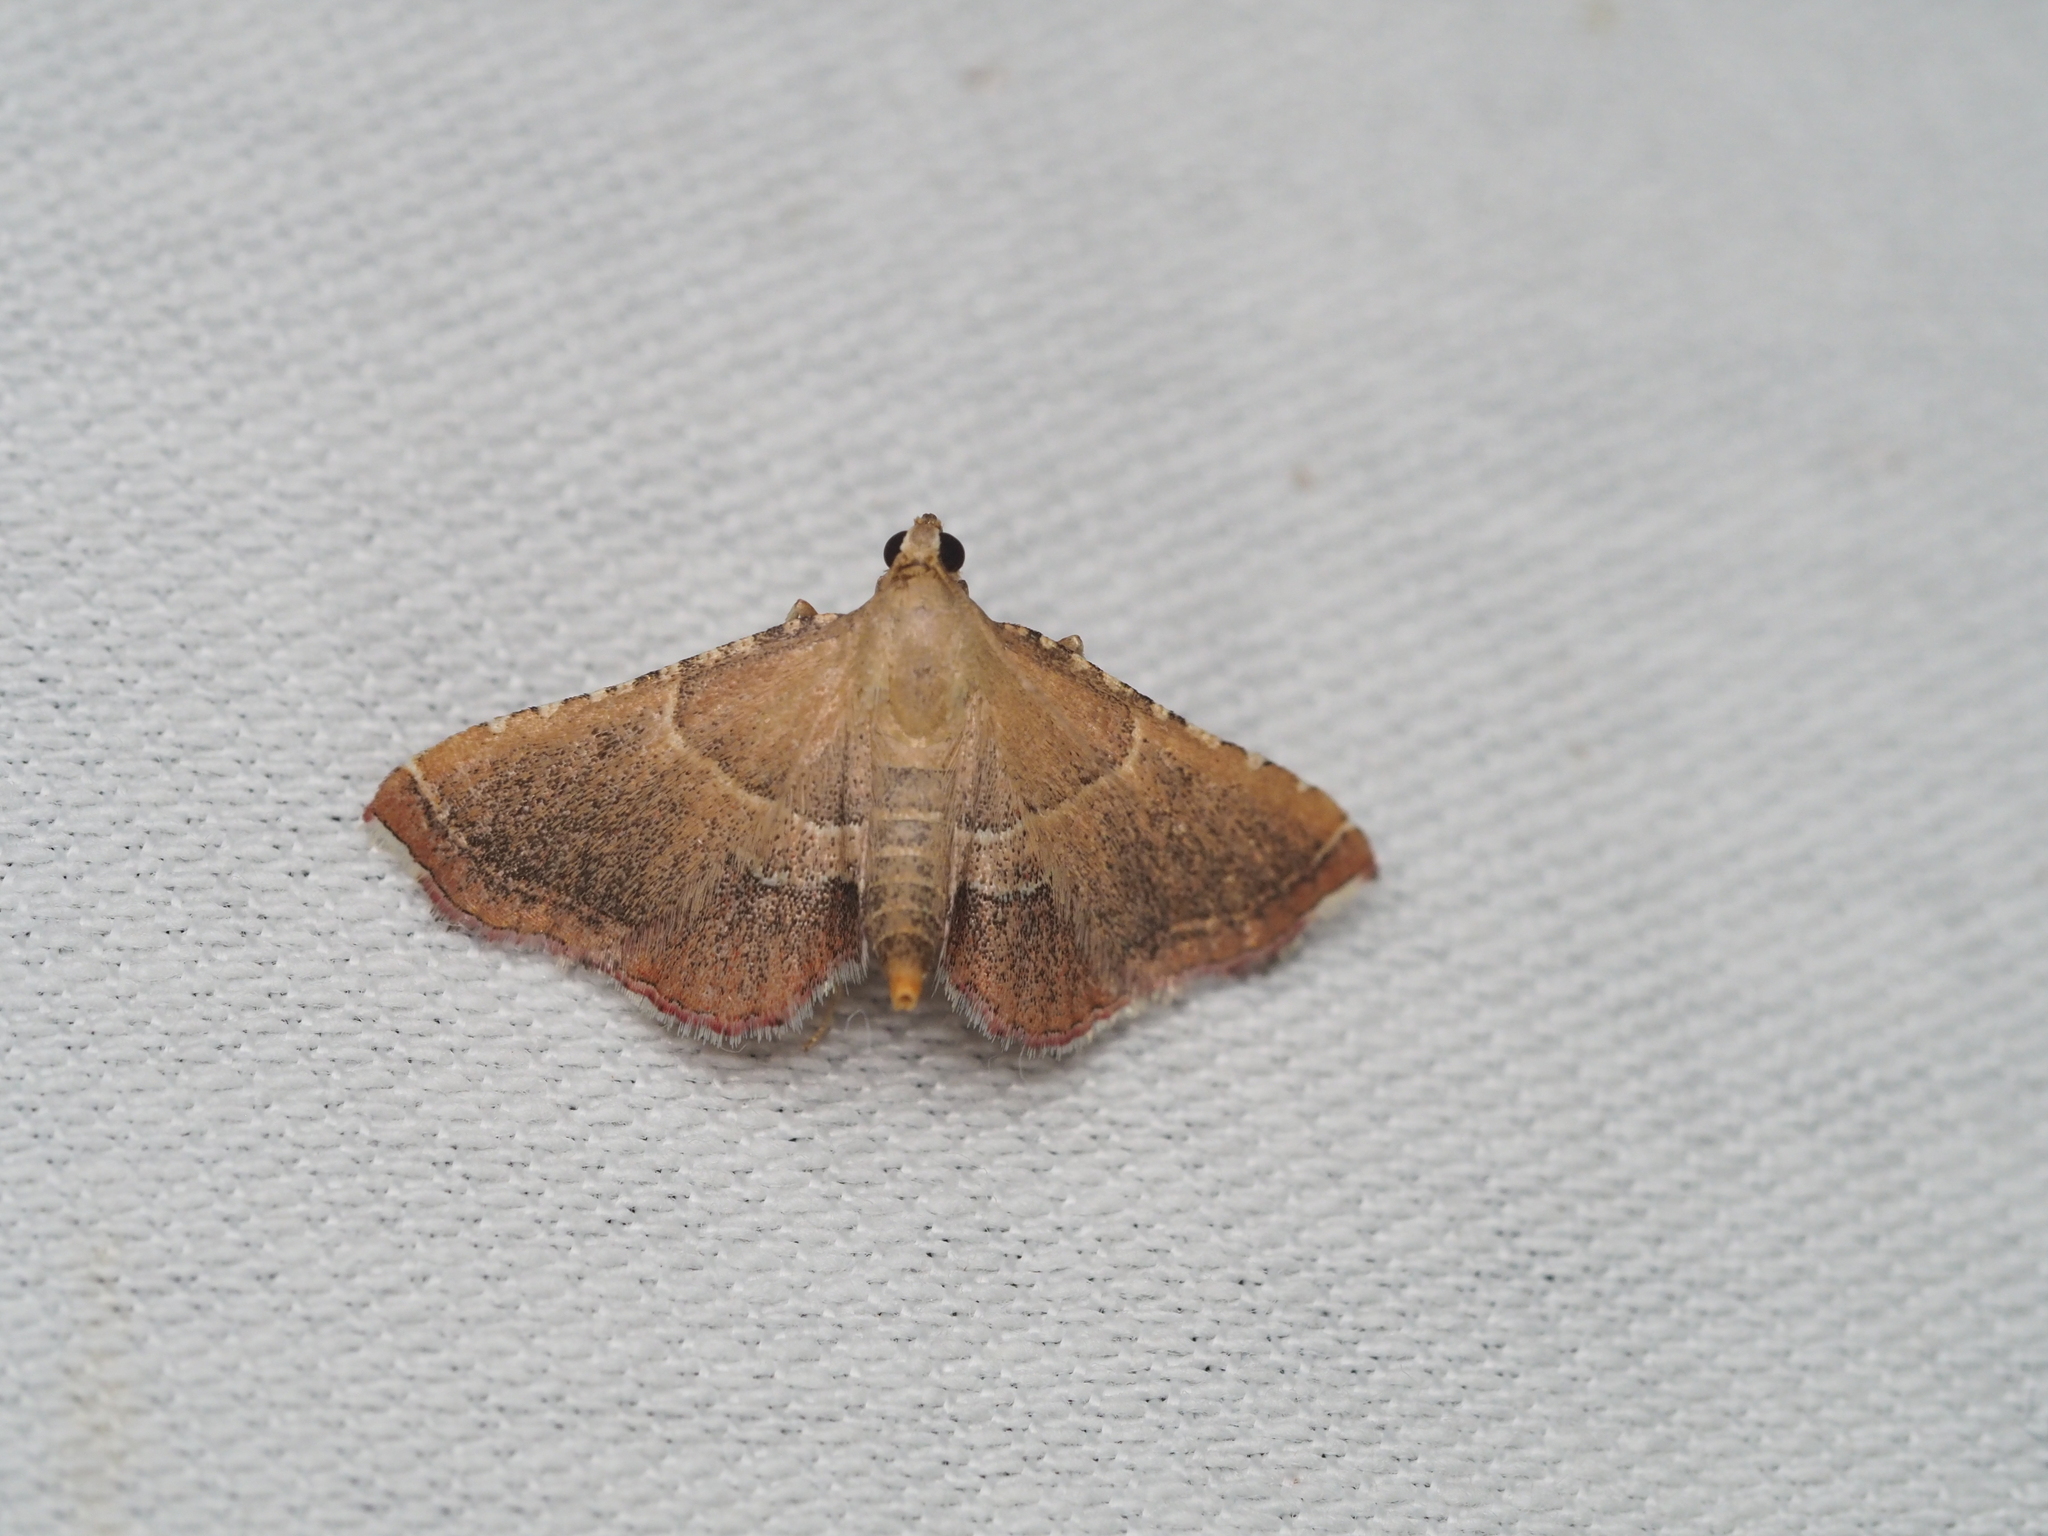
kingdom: Animalia
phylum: Arthropoda
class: Insecta
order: Lepidoptera
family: Pyralidae
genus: Endotricha
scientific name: Endotricha flammealis
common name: Rosy tabby
